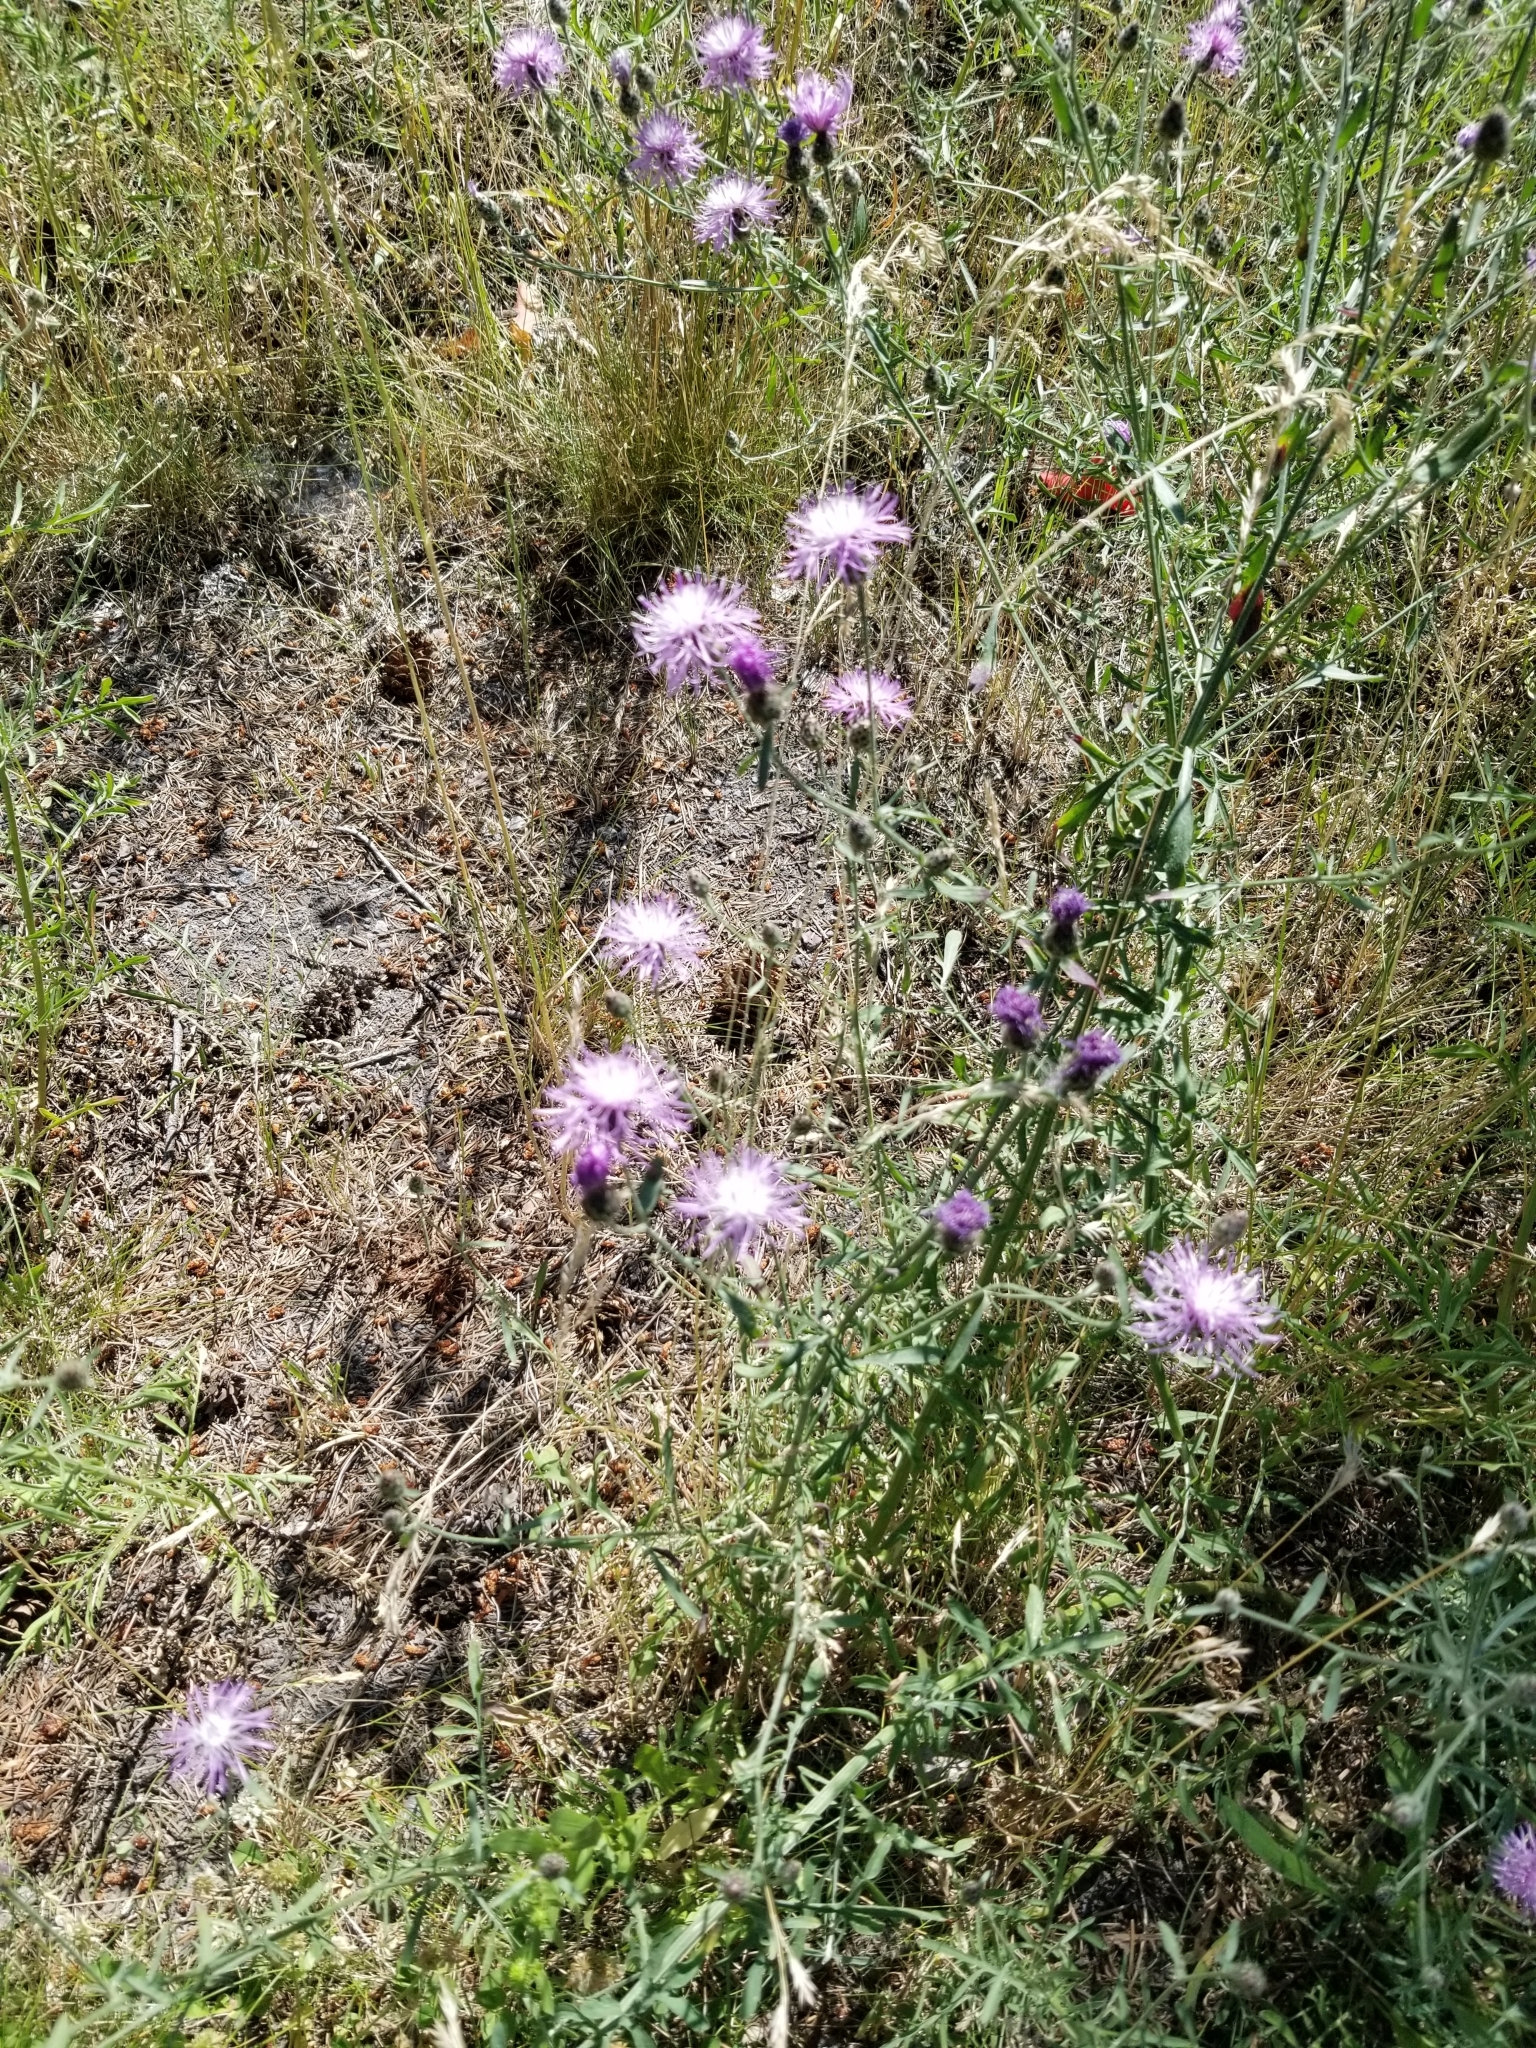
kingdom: Plantae
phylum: Tracheophyta
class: Magnoliopsida
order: Asterales
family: Asteraceae
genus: Centaurea
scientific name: Centaurea stoebe
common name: Spotted knapweed
